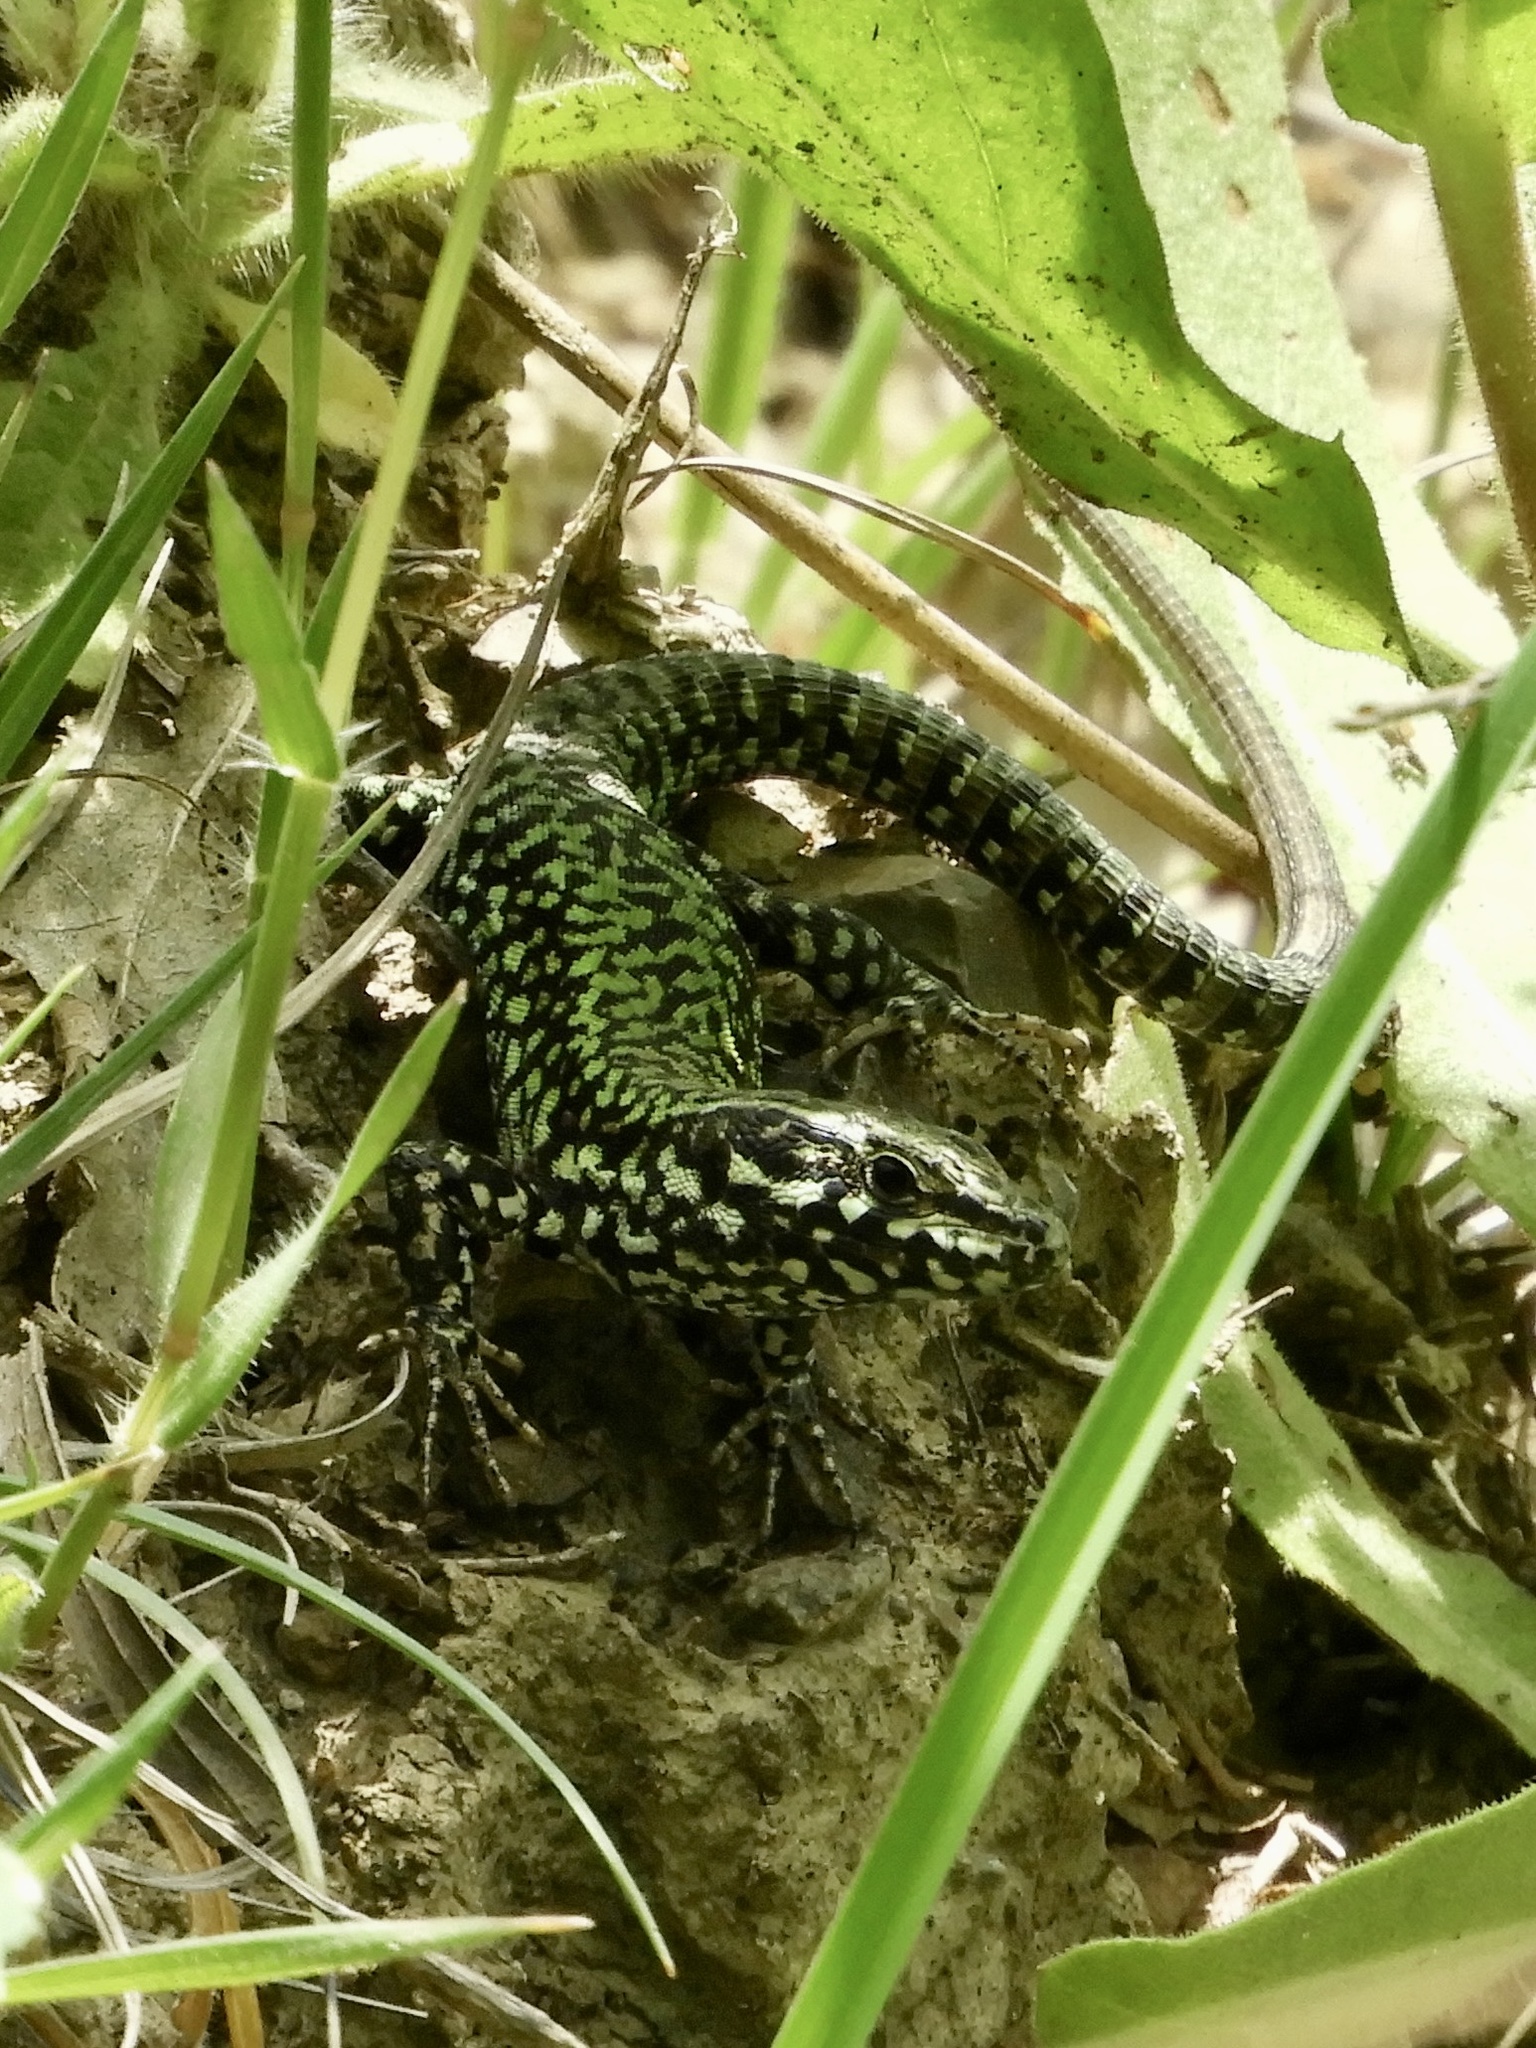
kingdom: Animalia
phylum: Chordata
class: Squamata
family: Lacertidae
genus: Podarcis
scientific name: Podarcis muralis
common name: Common wall lizard
